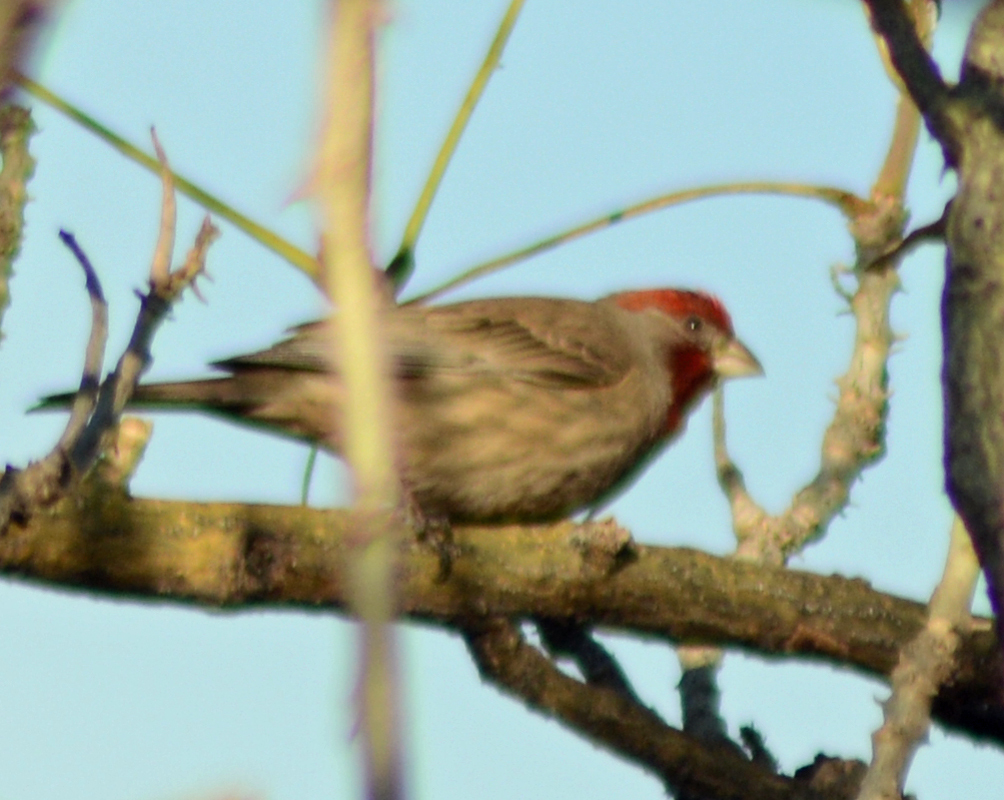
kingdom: Animalia
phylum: Chordata
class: Aves
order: Passeriformes
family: Fringillidae
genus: Haemorhous
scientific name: Haemorhous mexicanus
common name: House finch
